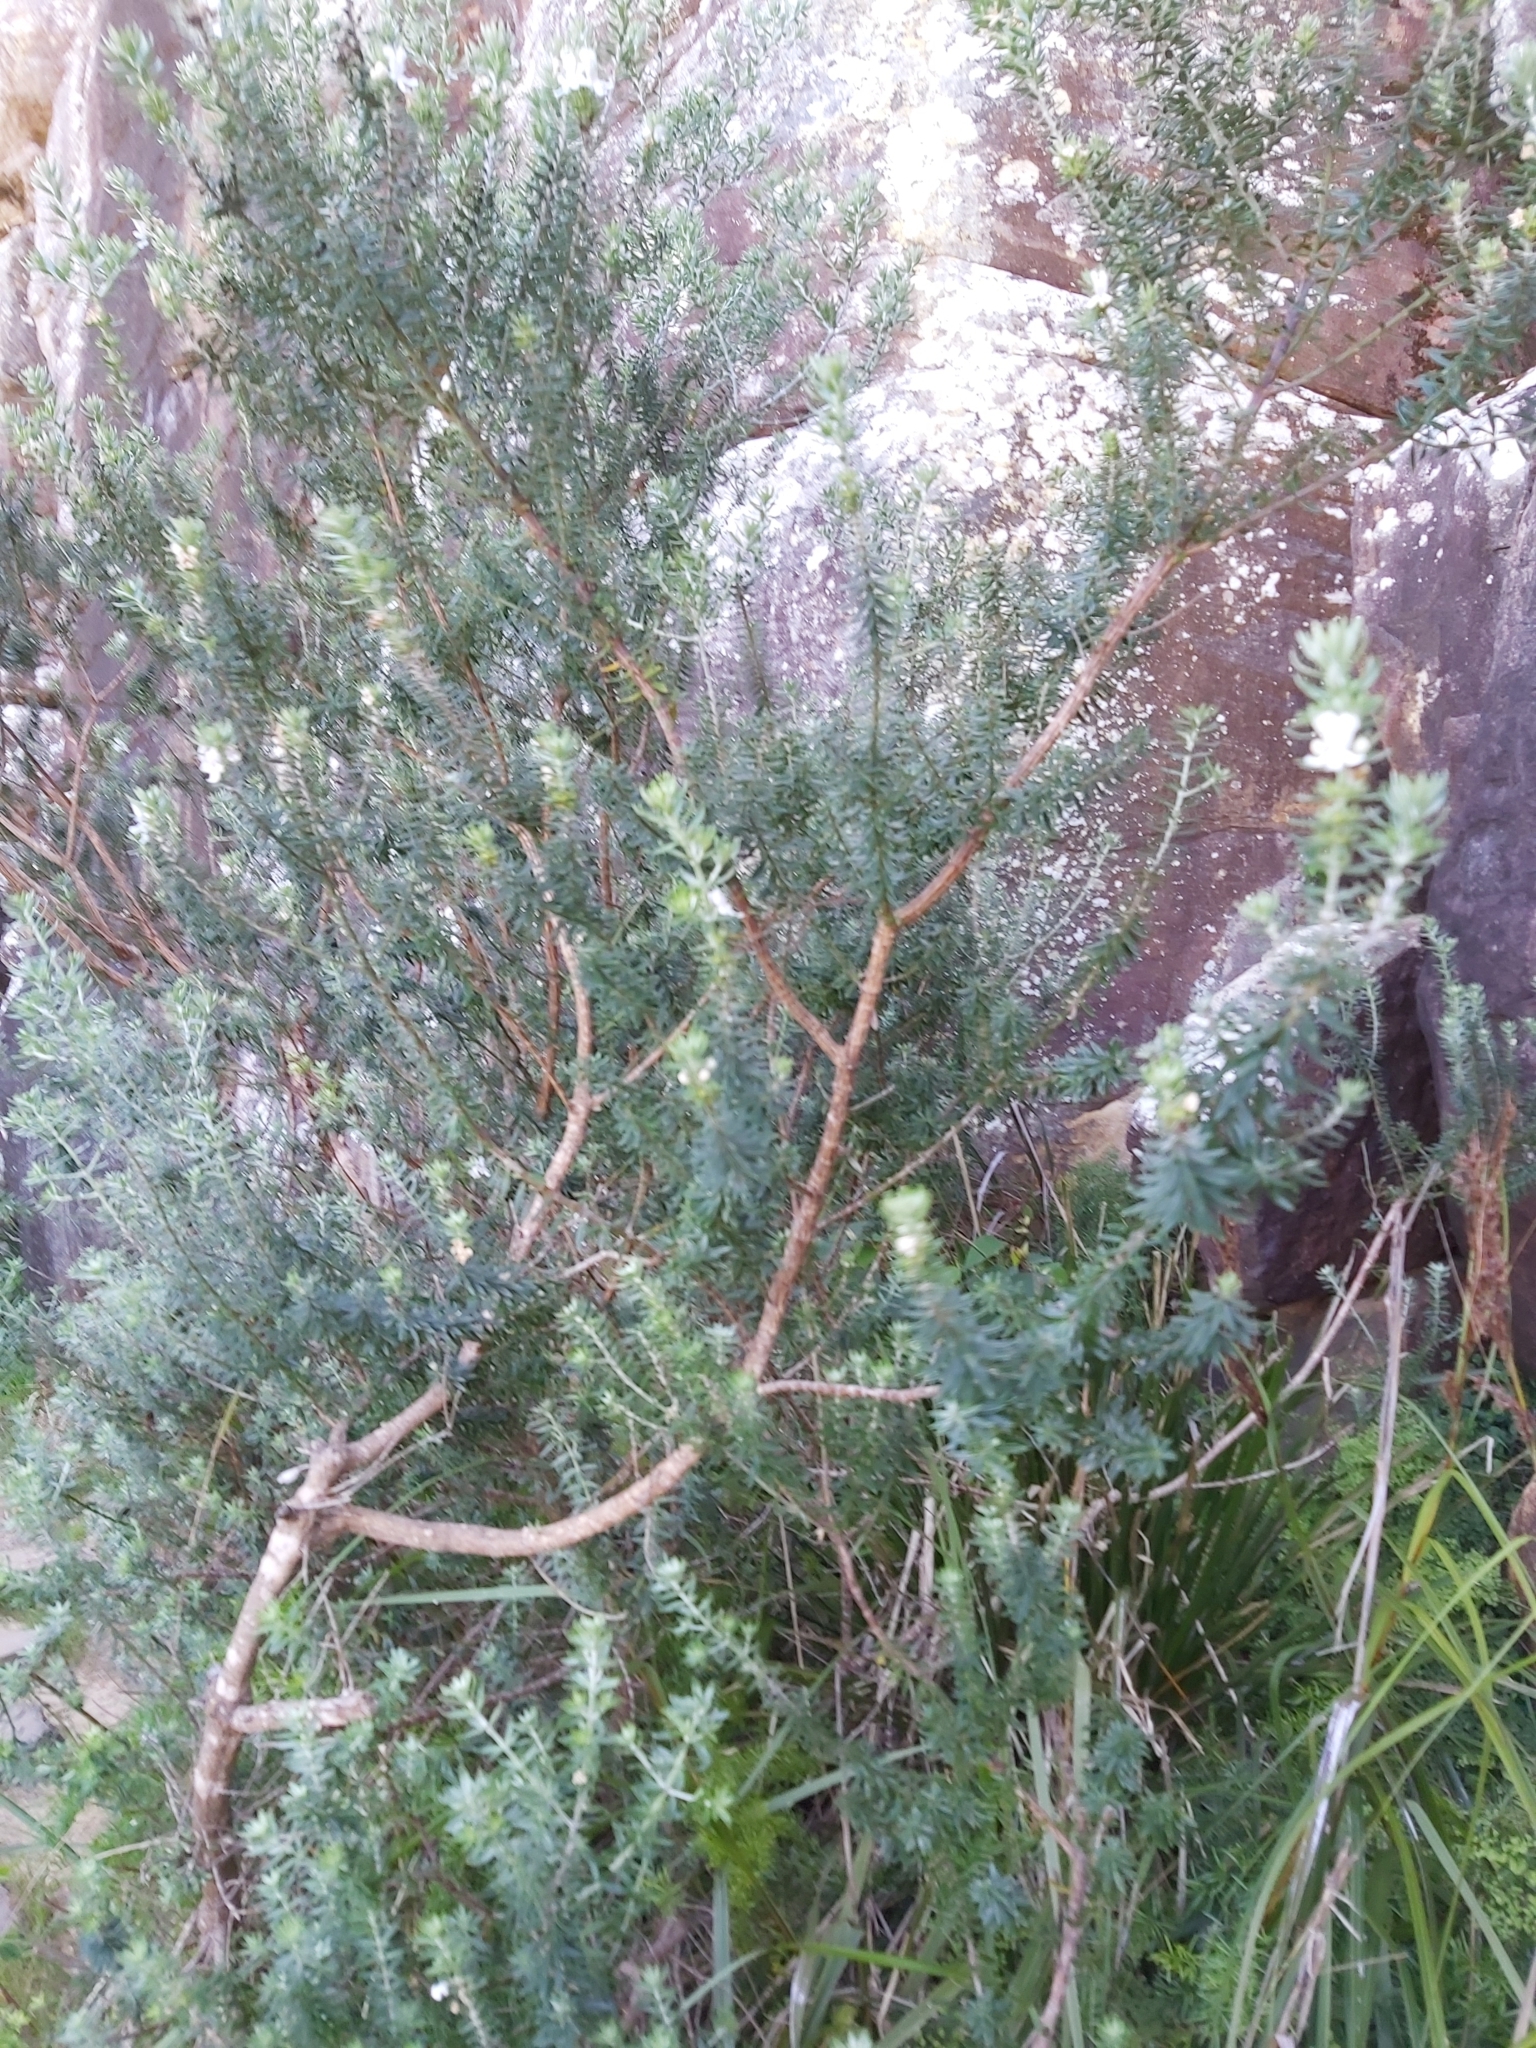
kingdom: Plantae
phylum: Tracheophyta
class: Magnoliopsida
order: Lamiales
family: Lamiaceae
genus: Westringia
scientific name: Westringia fruticosa
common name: Coastal-rosemary
